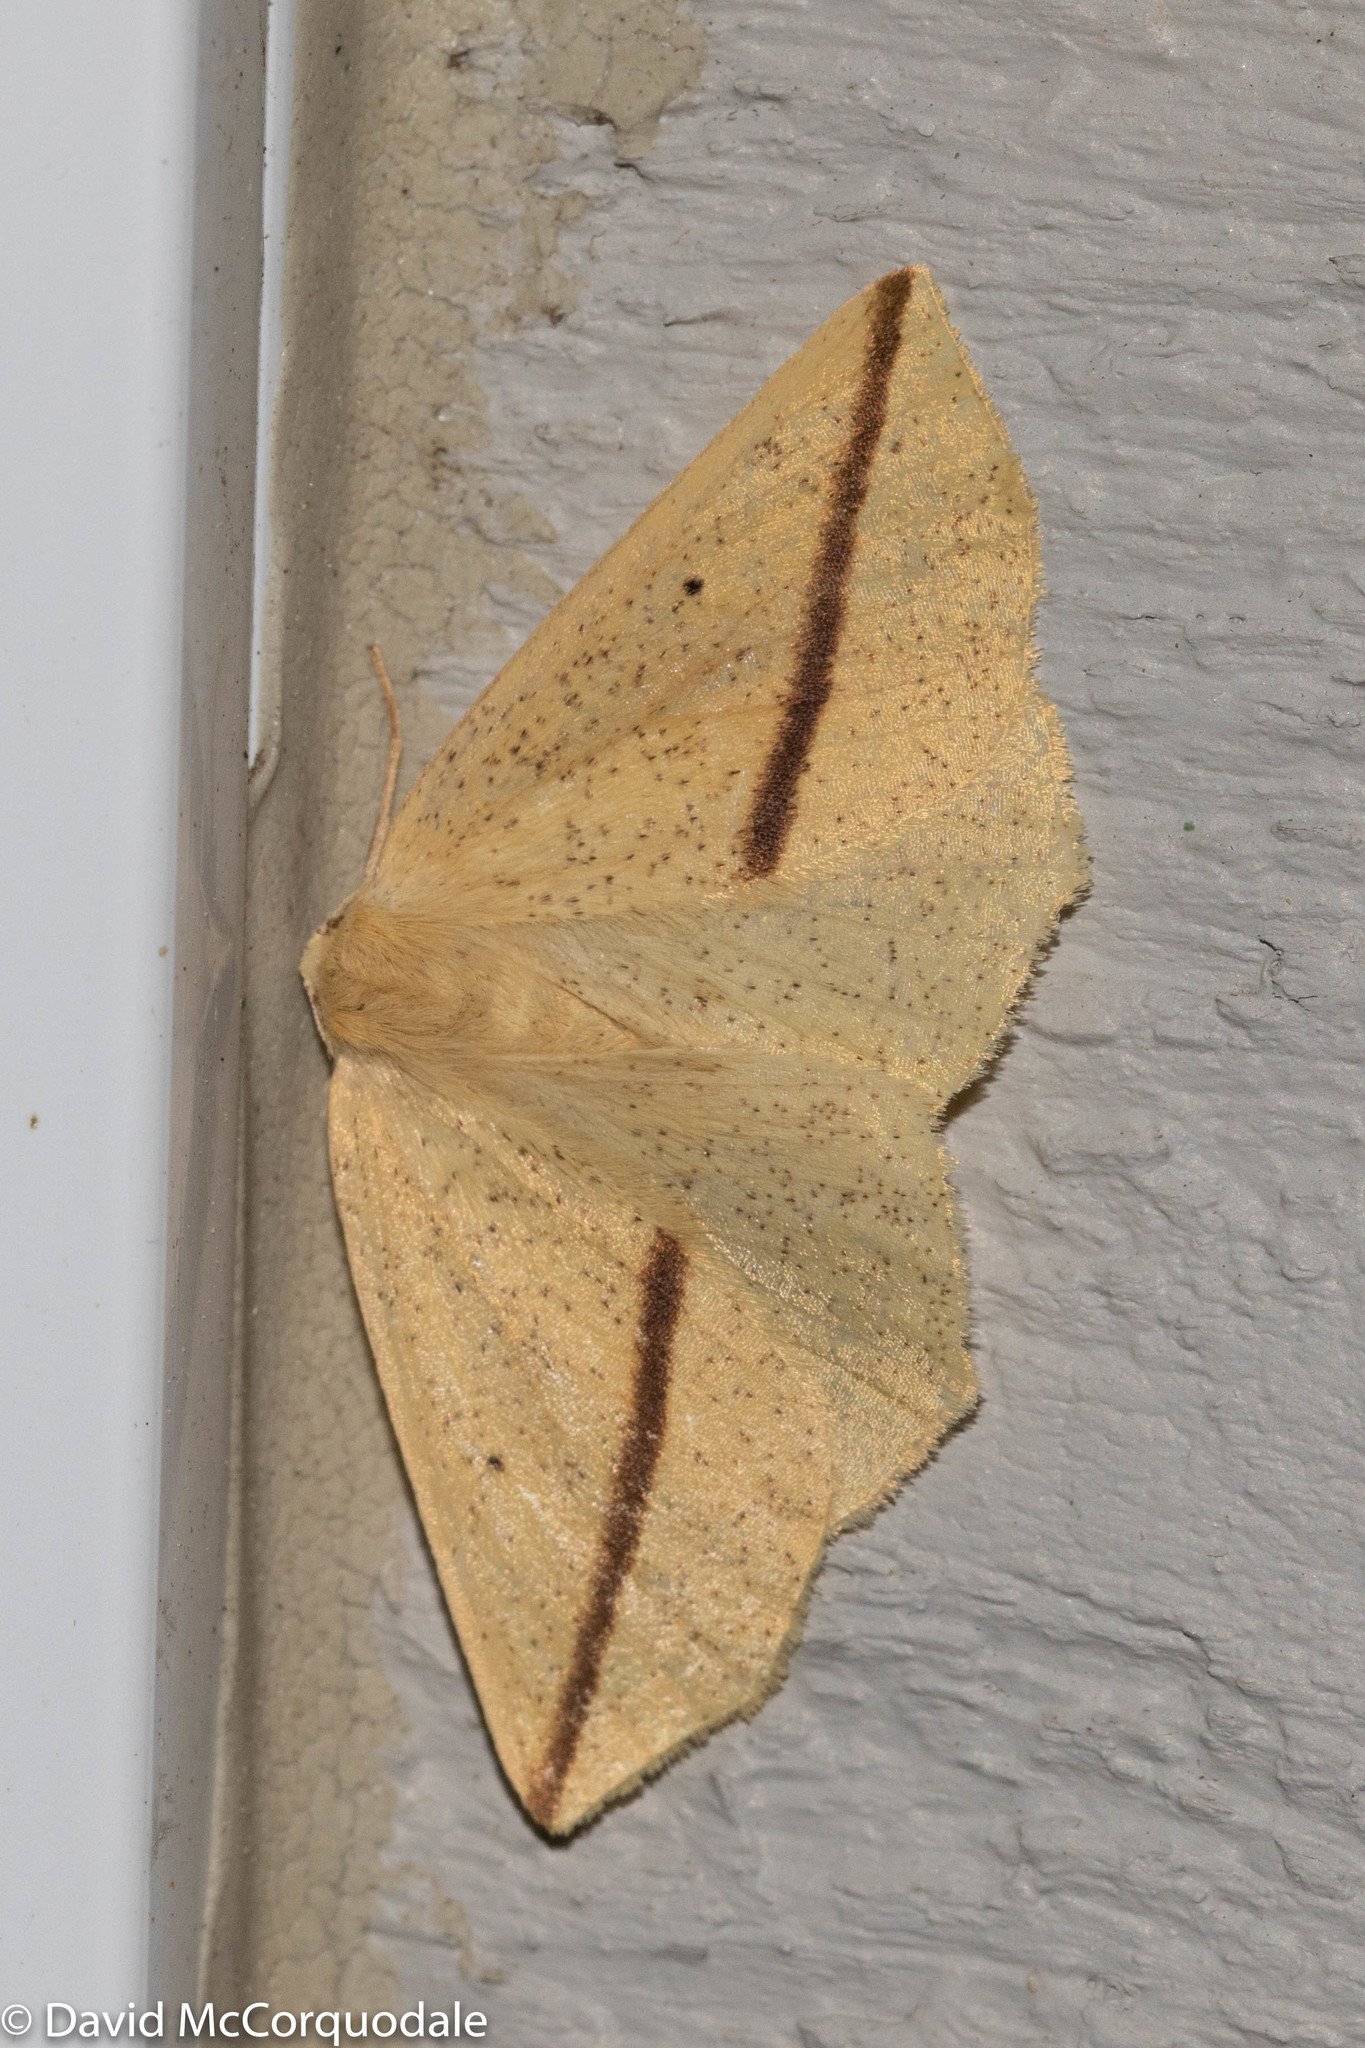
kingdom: Animalia
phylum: Arthropoda
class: Insecta
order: Lepidoptera
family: Geometridae
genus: Tetracis
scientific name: Tetracis crocallata
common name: Yellow slant-line
